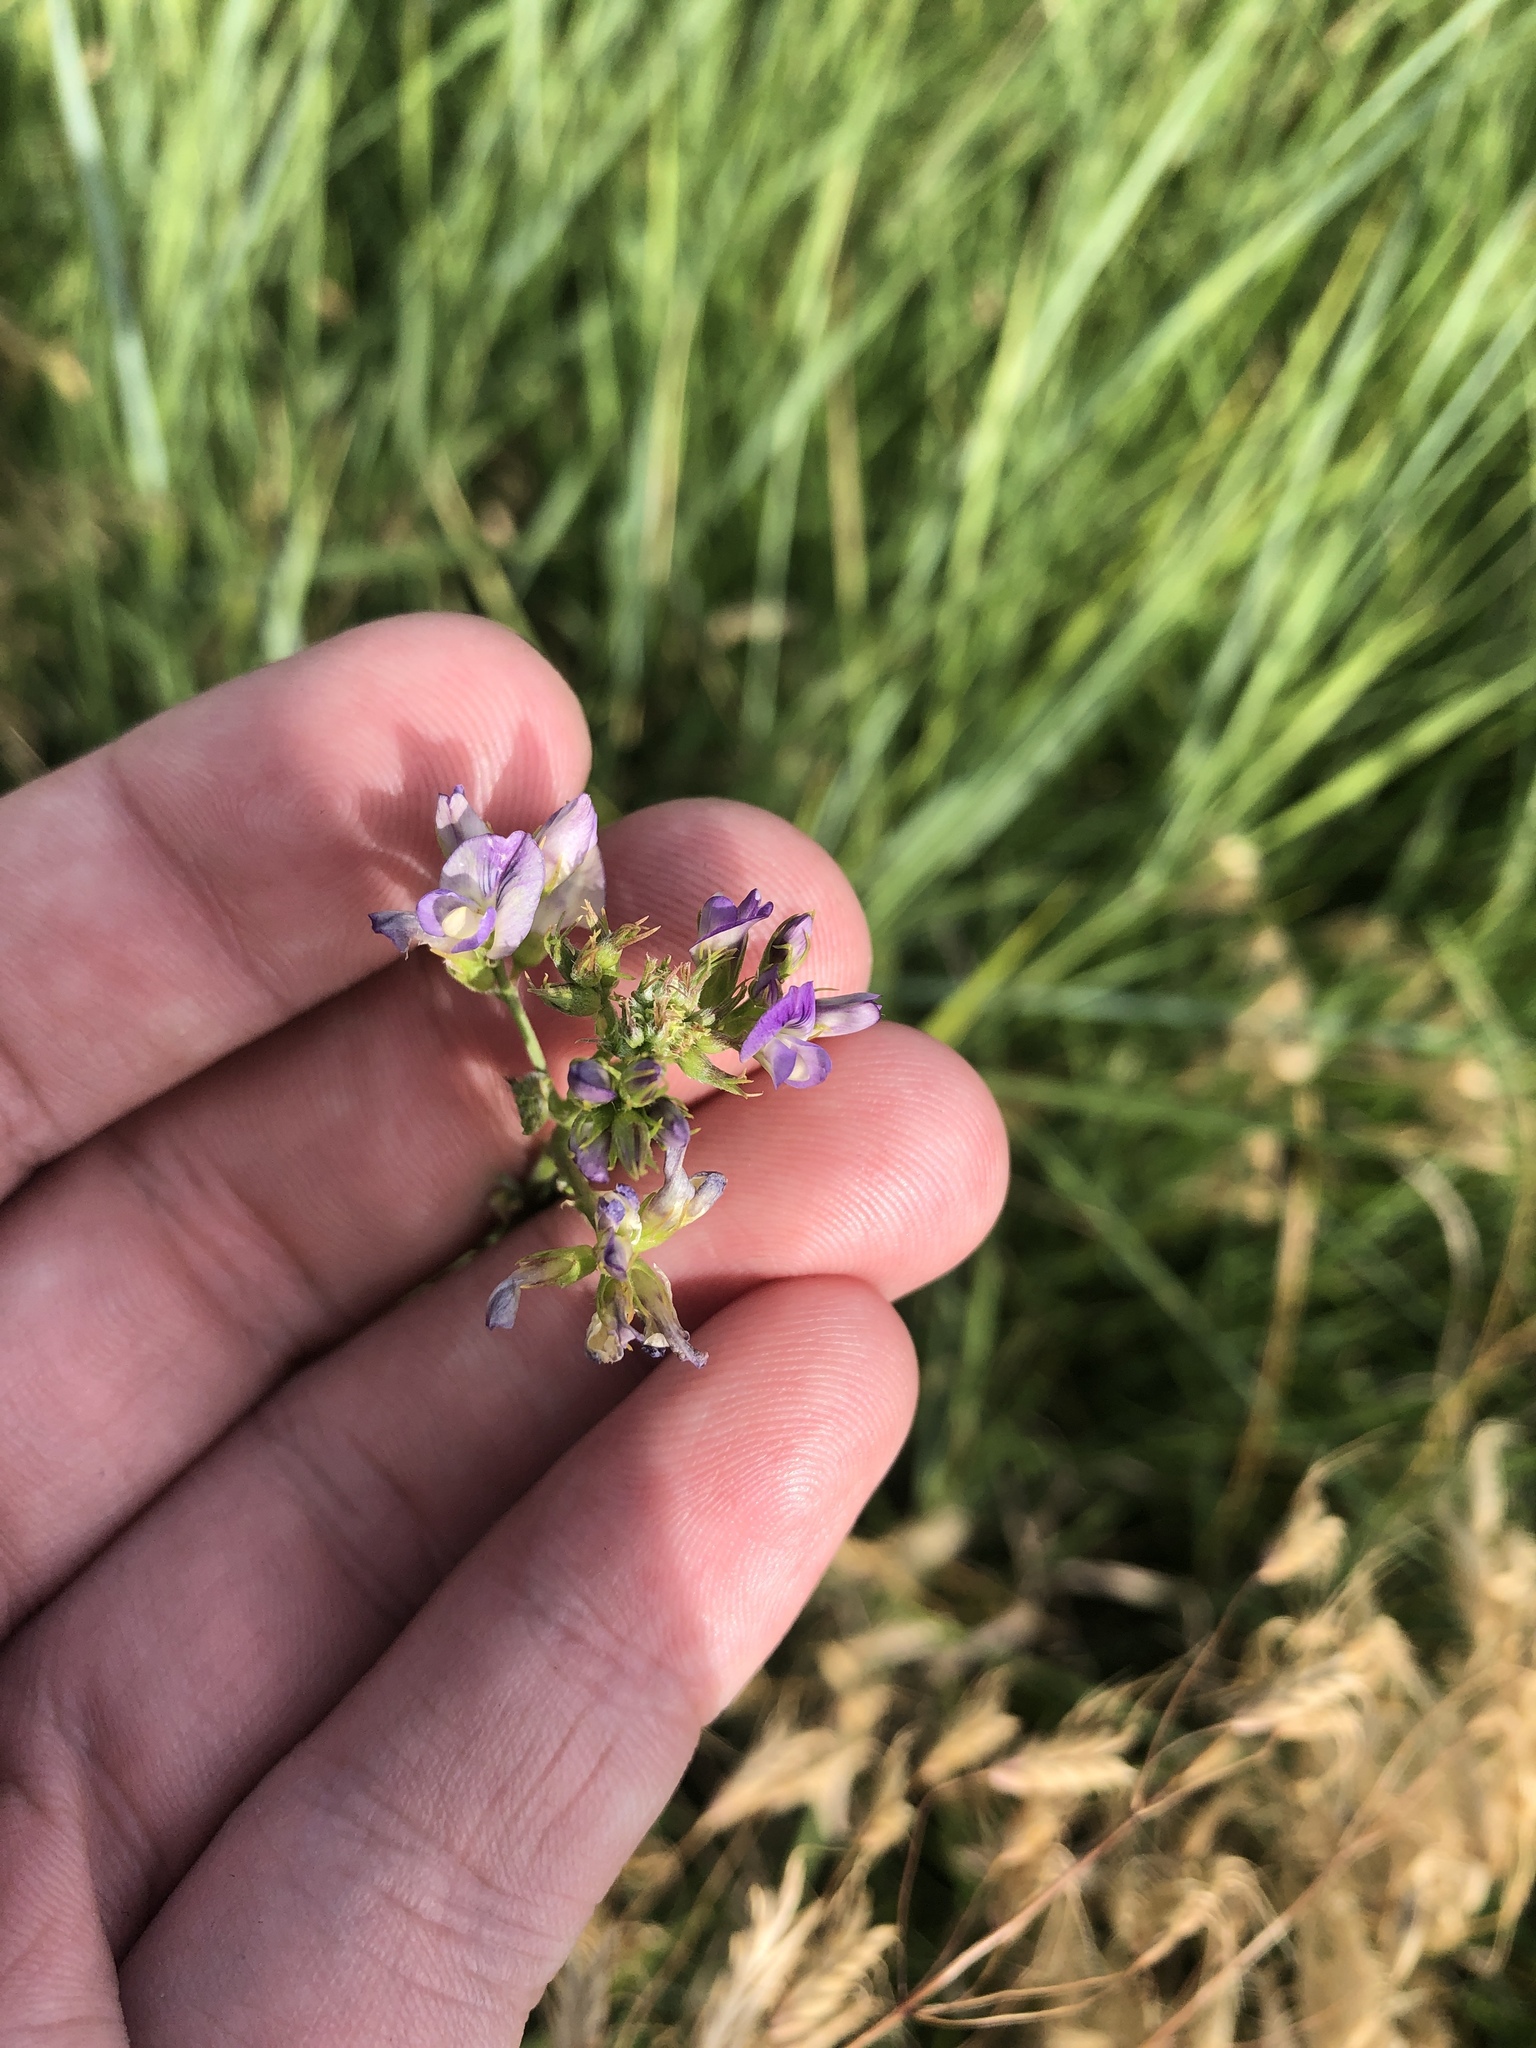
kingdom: Plantae
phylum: Tracheophyta
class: Magnoliopsida
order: Fabales
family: Fabaceae
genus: Medicago
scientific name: Medicago sativa
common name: Alfalfa
